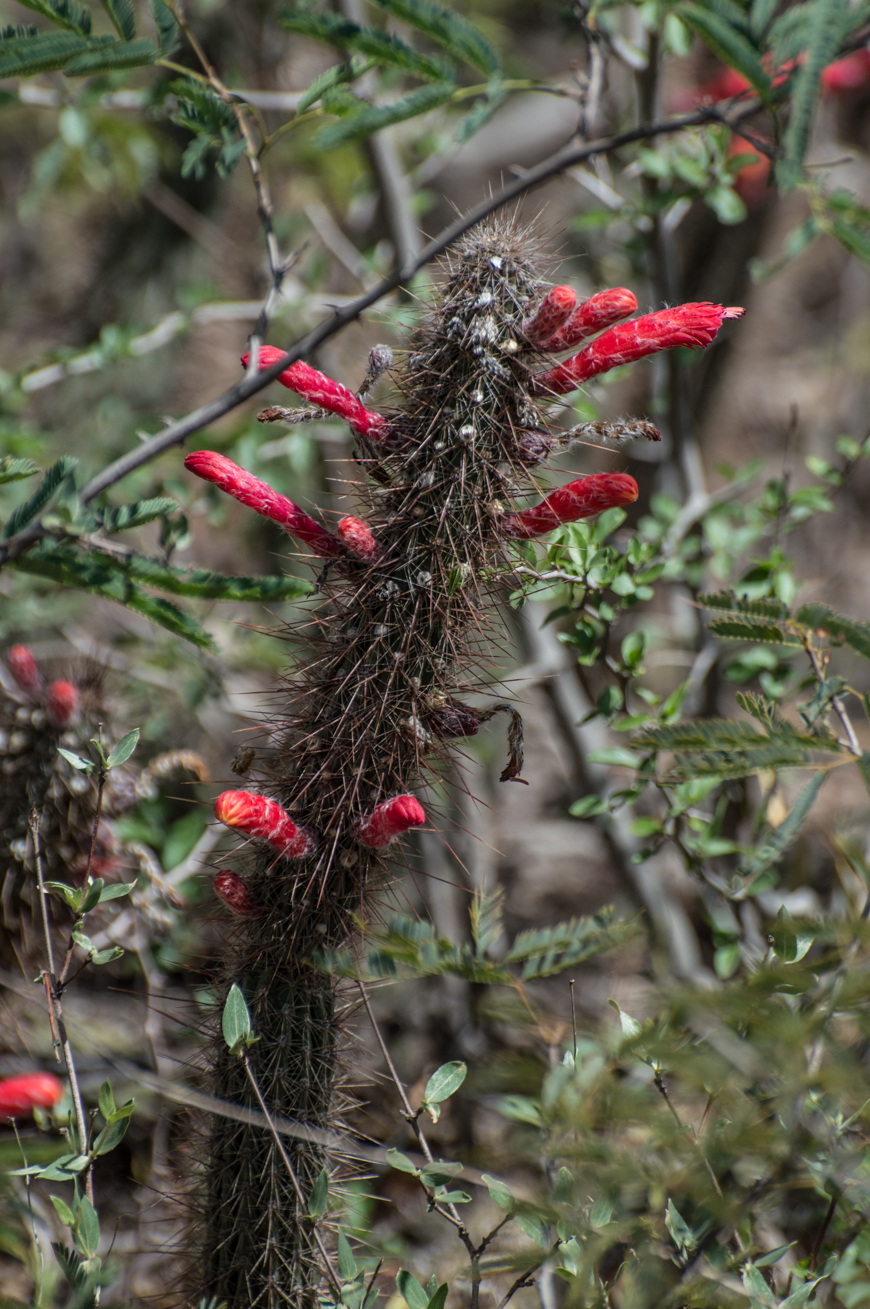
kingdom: Plantae
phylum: Tracheophyta
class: Magnoliopsida
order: Caryophyllales
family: Cactaceae
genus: Cleistocactus
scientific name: Cleistocactus baumannii
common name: Scarlet-bugler
